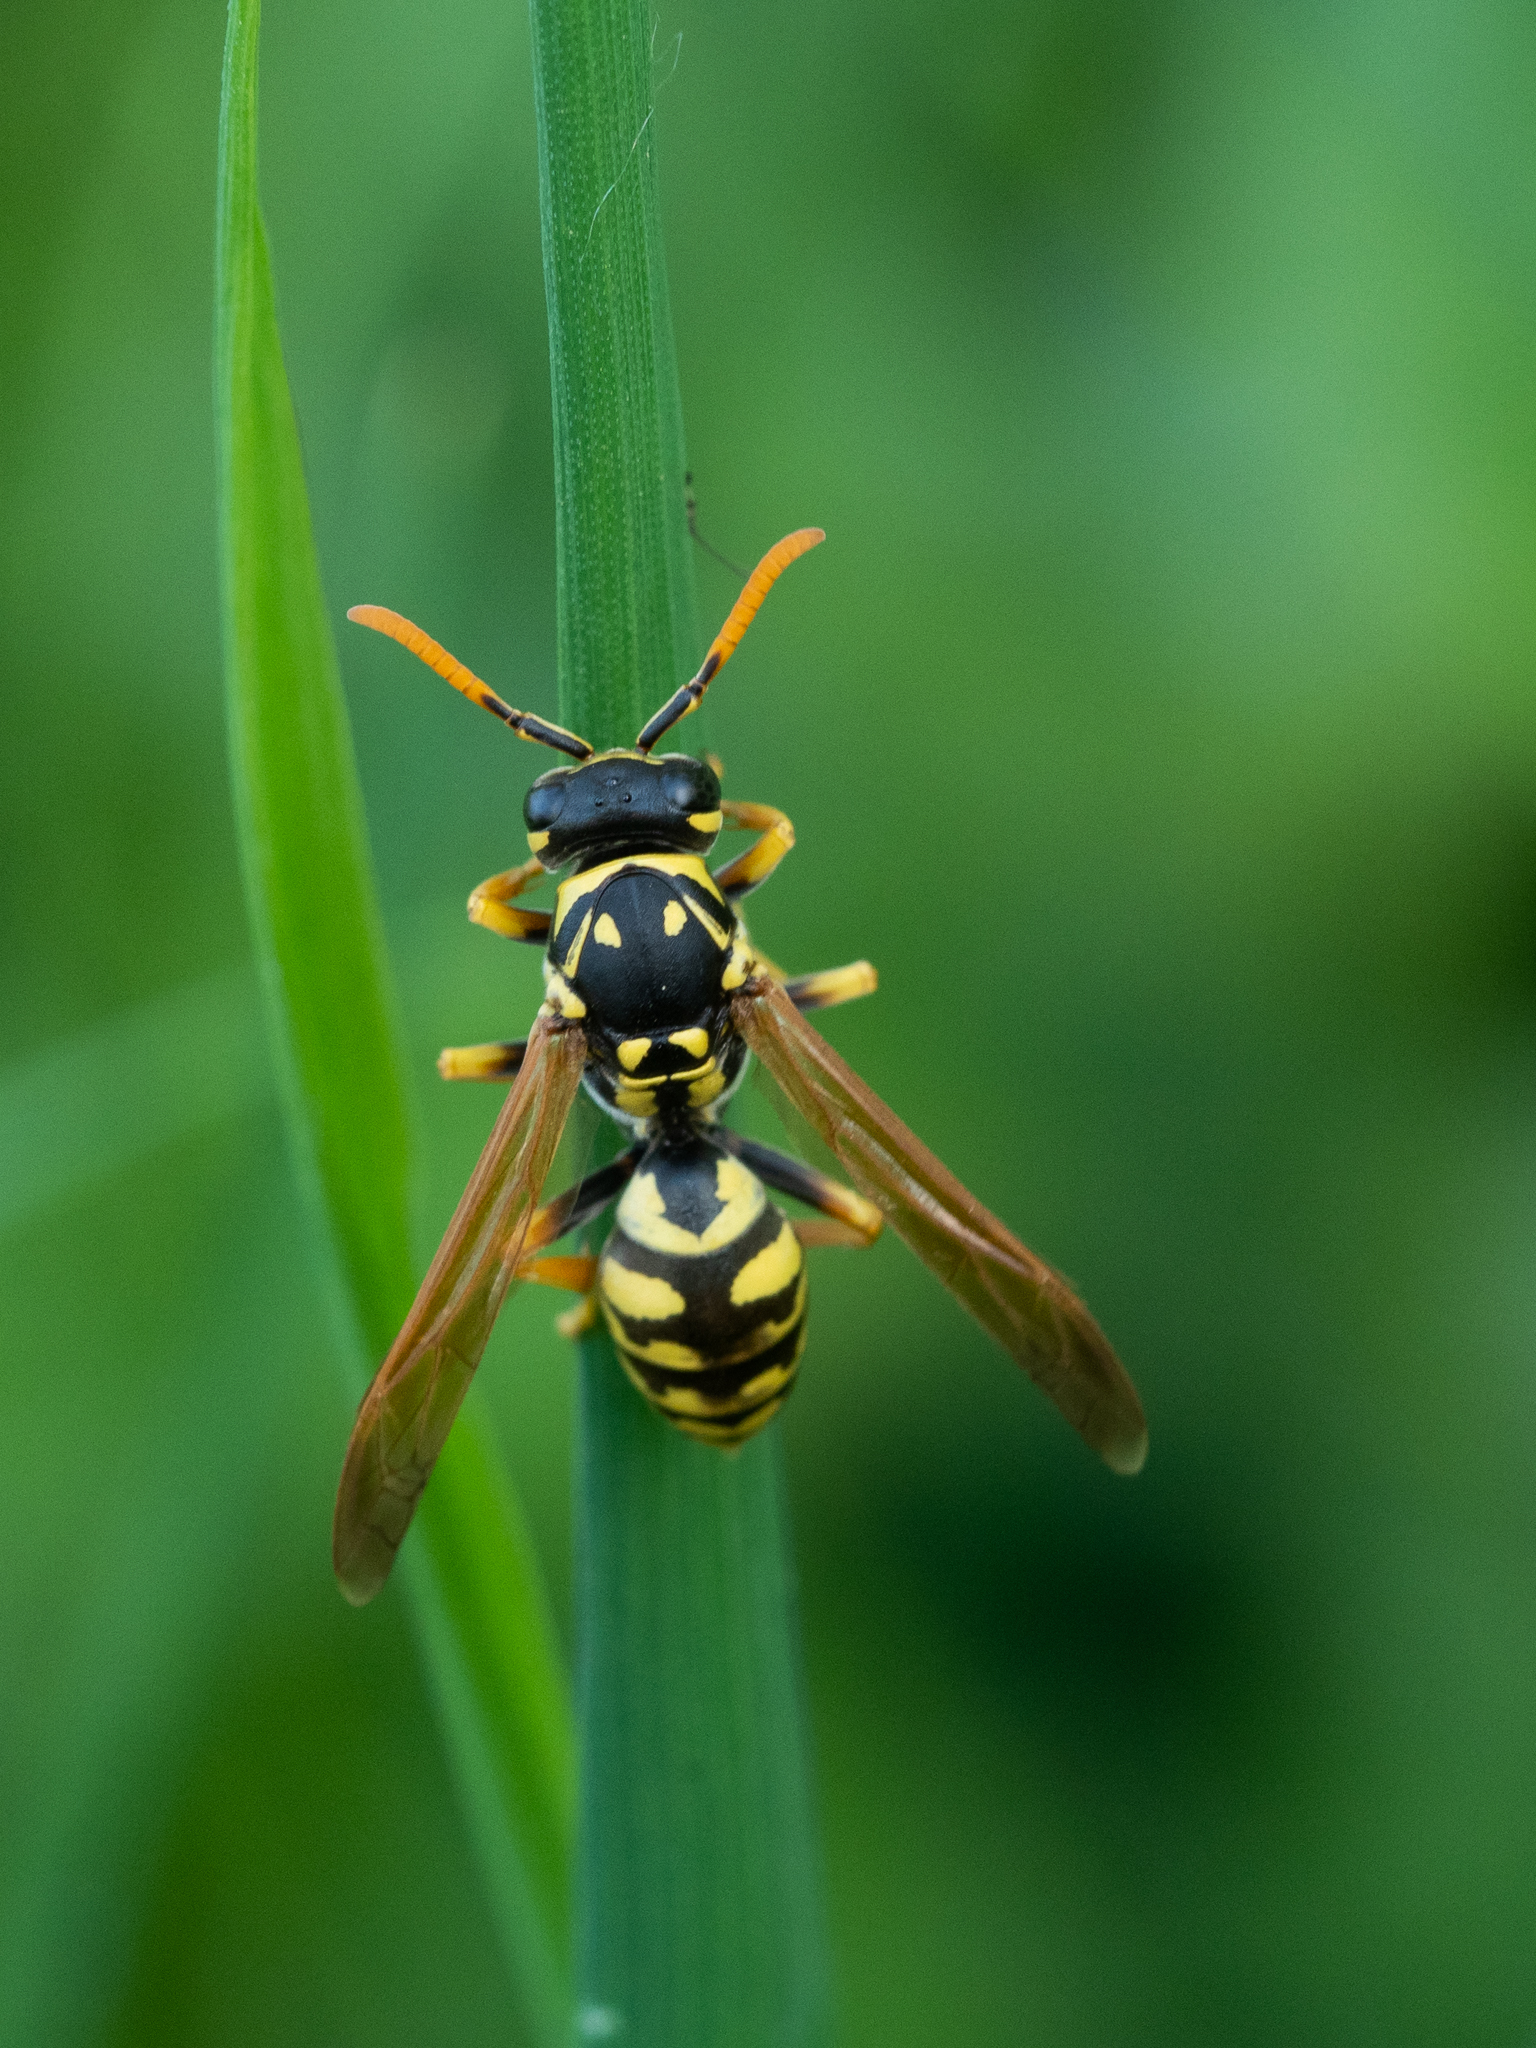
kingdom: Animalia
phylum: Arthropoda
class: Insecta
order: Hymenoptera
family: Eumenidae
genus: Polistes
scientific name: Polistes dominula
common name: Paper wasp
